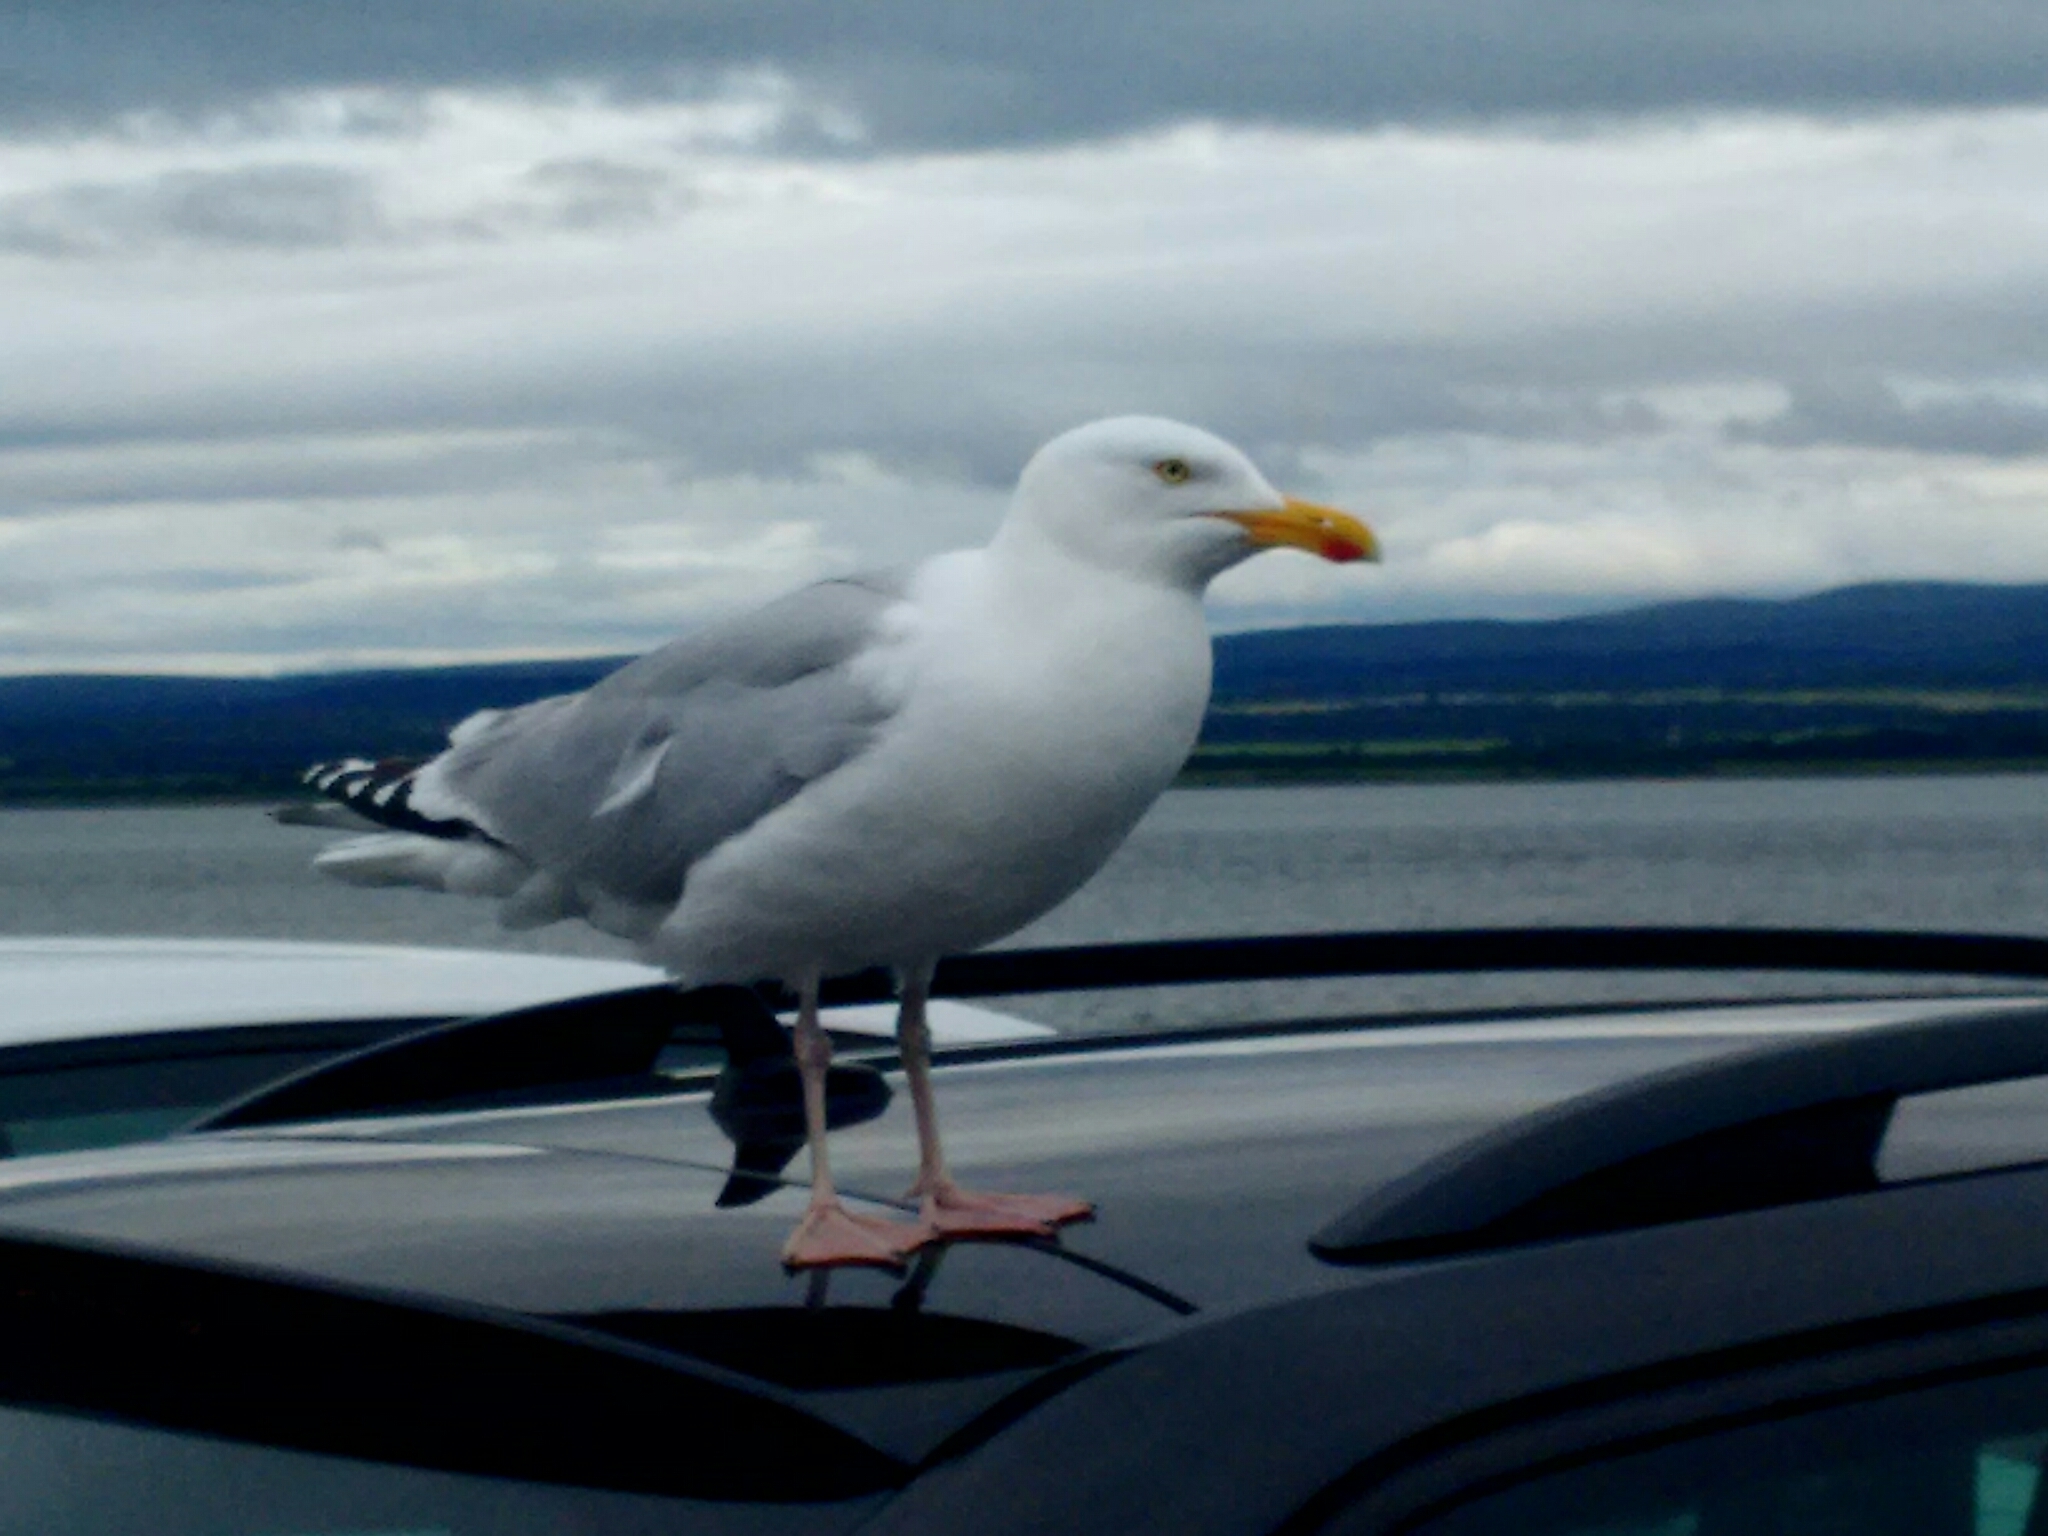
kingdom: Animalia
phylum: Chordata
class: Aves
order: Charadriiformes
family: Laridae
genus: Larus
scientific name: Larus argentatus
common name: Herring gull
